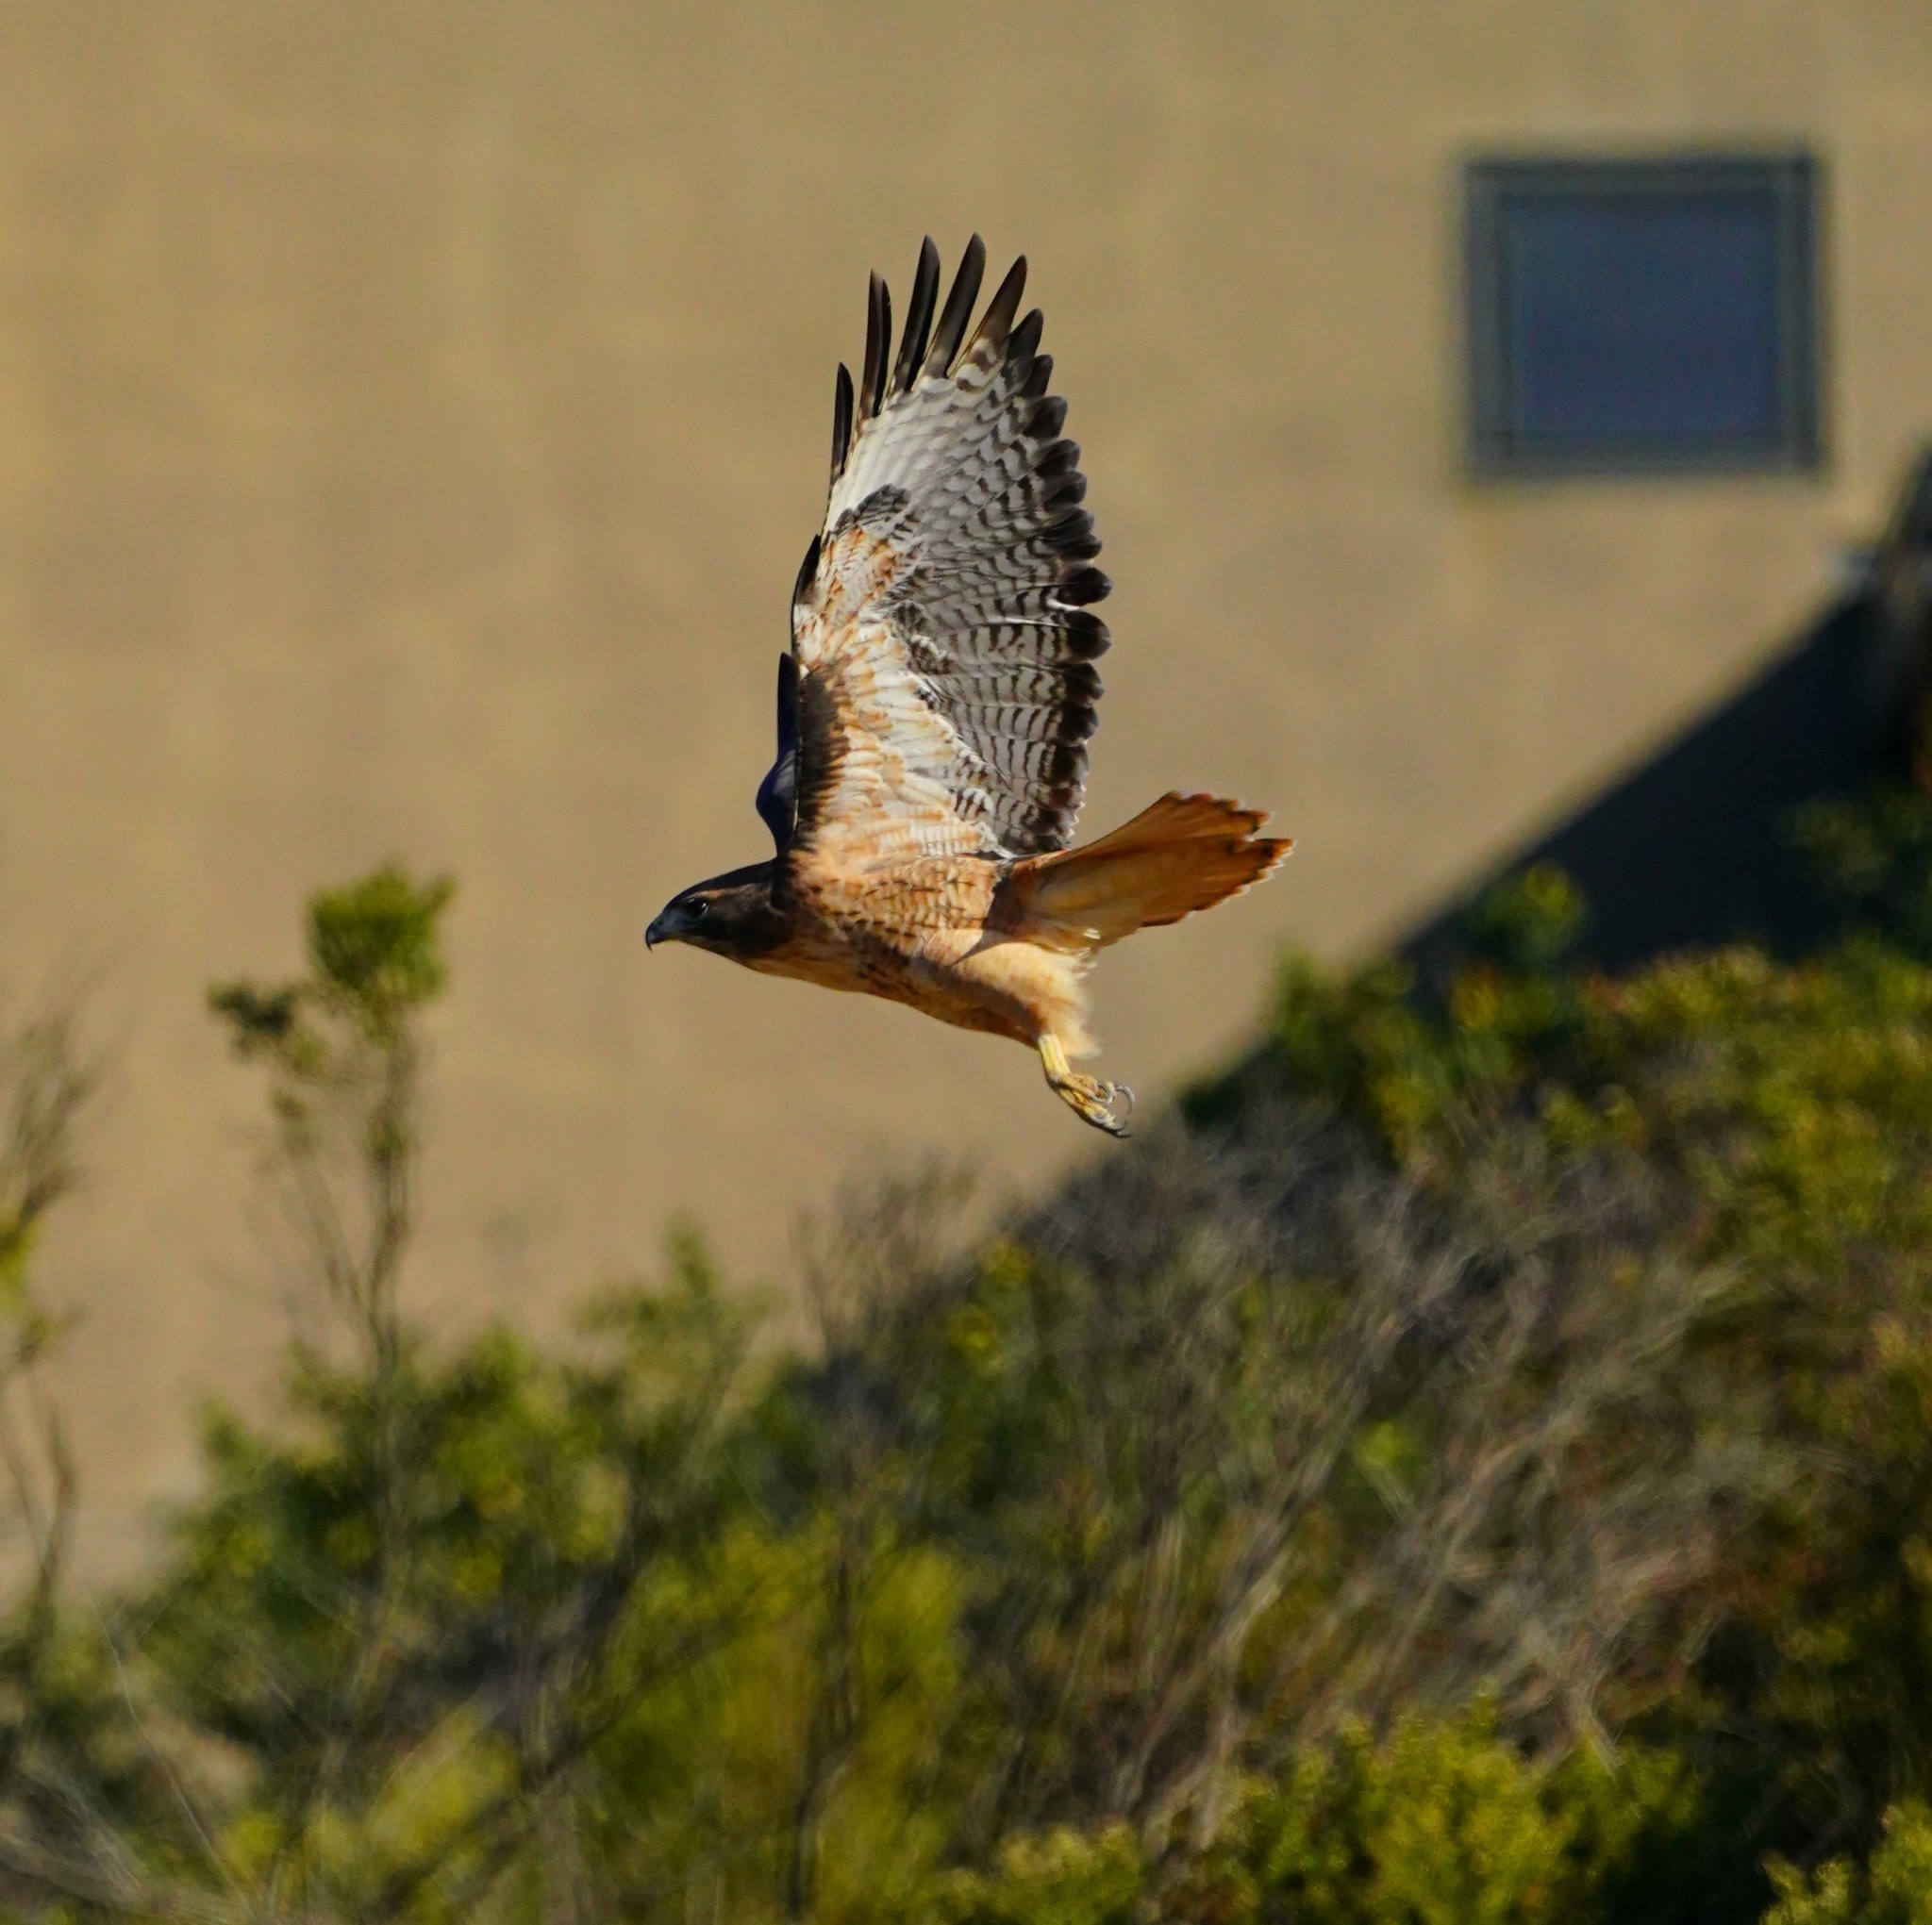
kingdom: Animalia
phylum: Chordata
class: Aves
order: Accipitriformes
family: Accipitridae
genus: Buteo
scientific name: Buteo jamaicensis
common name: Red-tailed hawk
